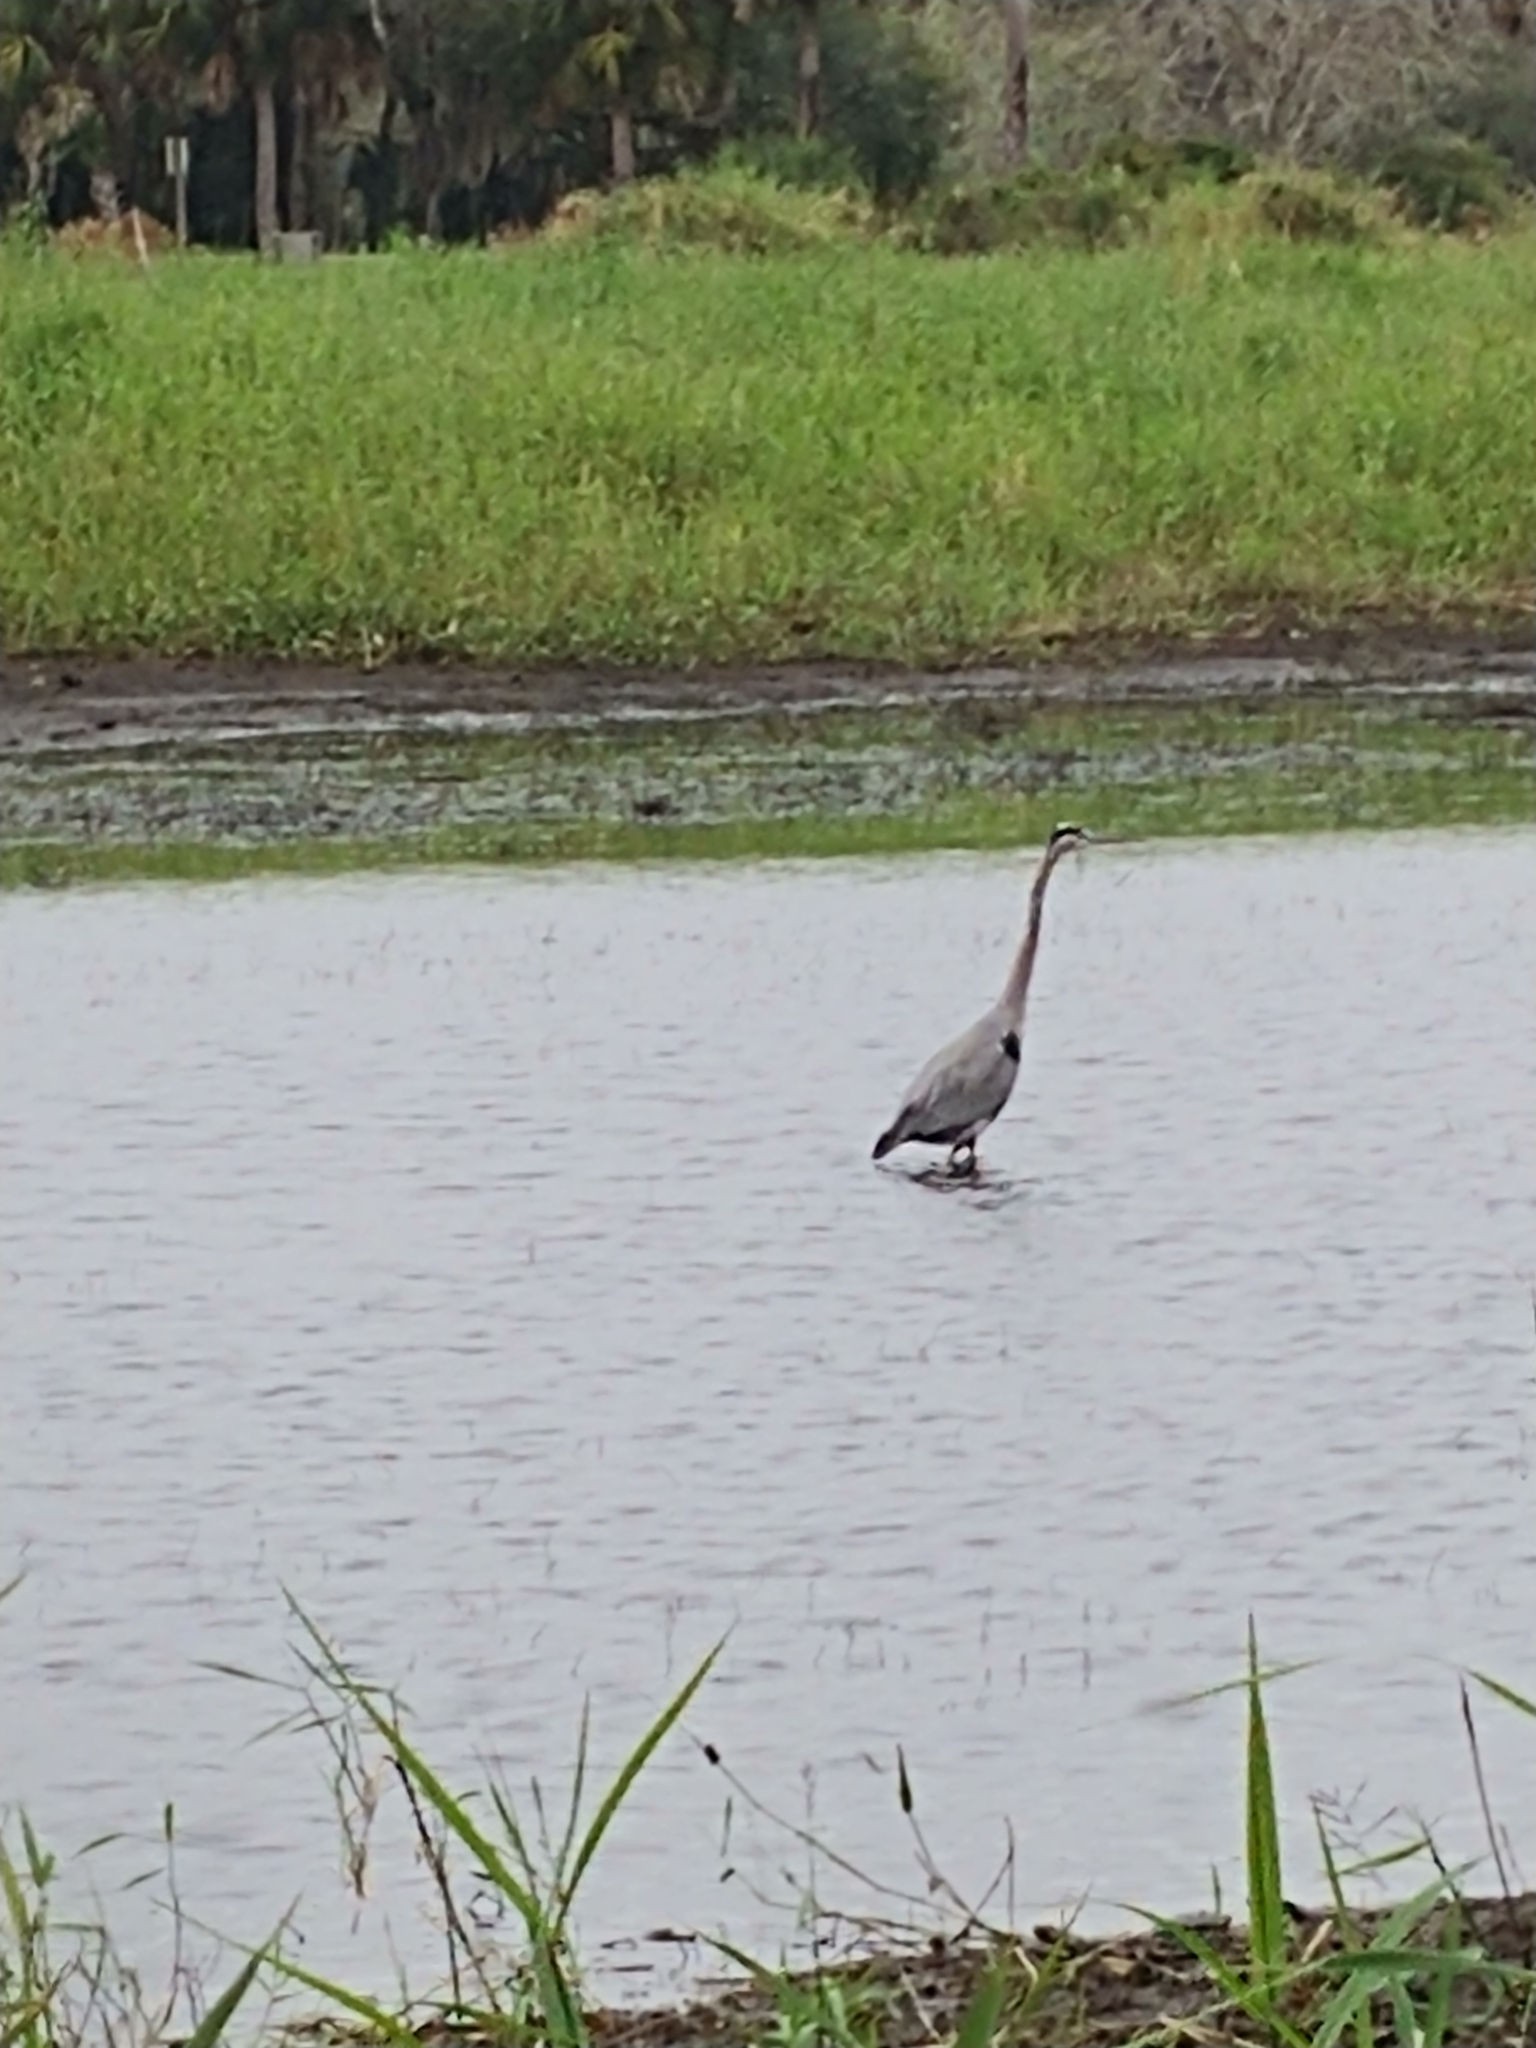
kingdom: Animalia
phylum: Chordata
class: Aves
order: Pelecaniformes
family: Ardeidae
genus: Ardea
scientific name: Ardea herodias
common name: Great blue heron
